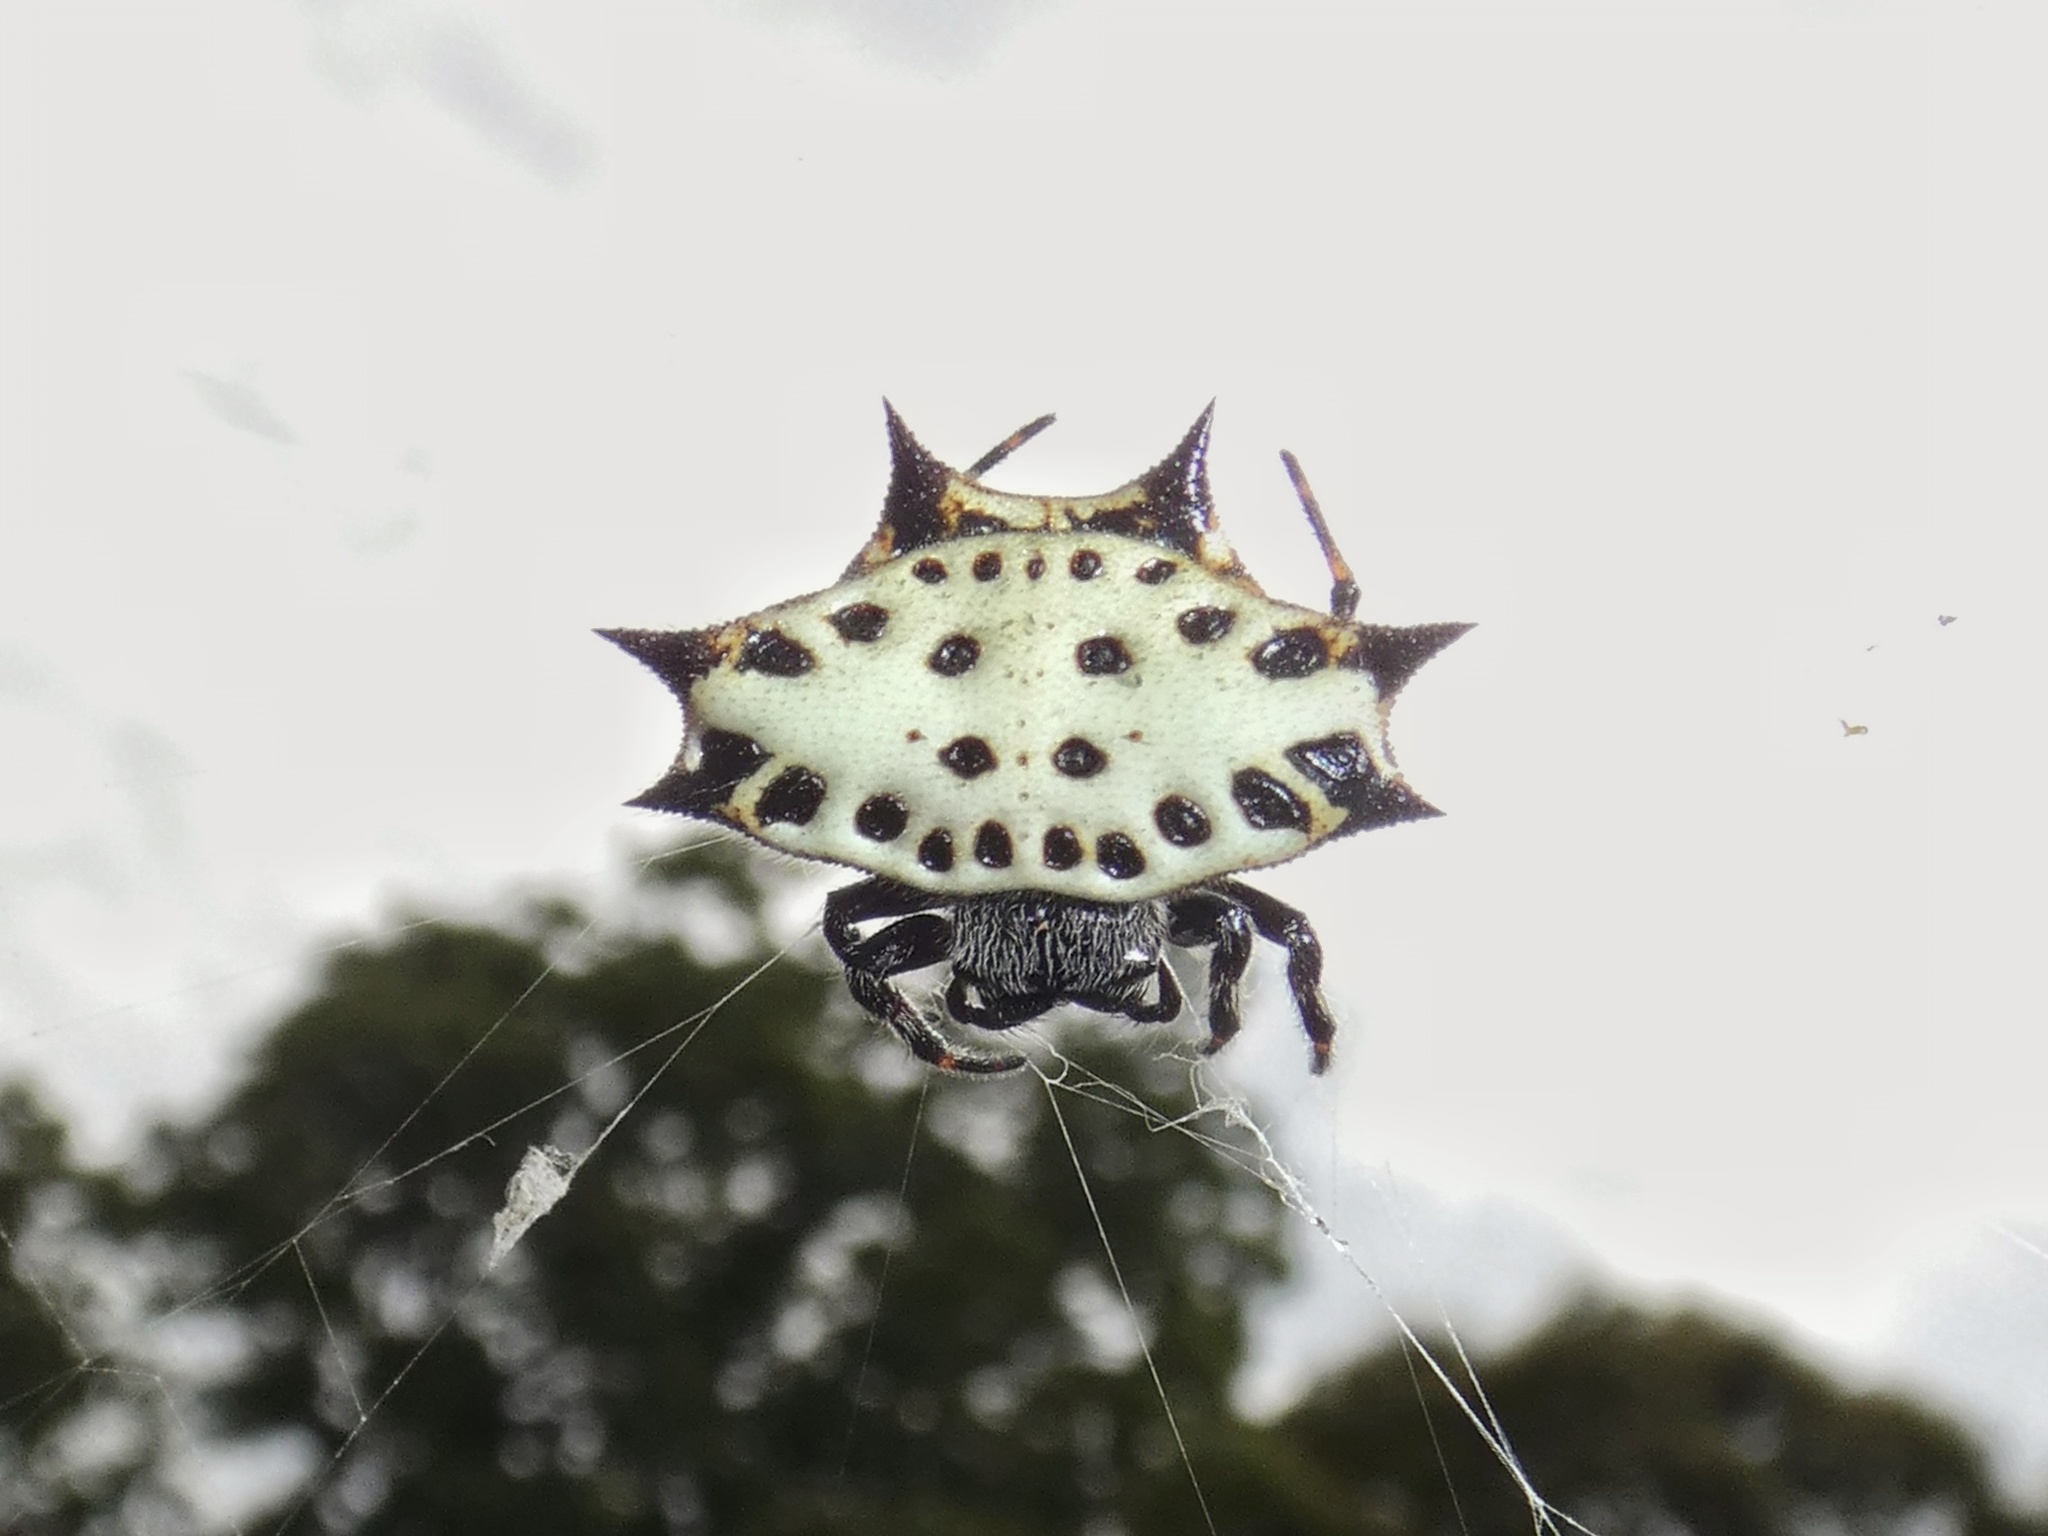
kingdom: Animalia
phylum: Arthropoda
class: Arachnida
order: Araneae
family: Araneidae
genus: Gasteracantha
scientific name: Gasteracantha cancriformis
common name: Orb weavers
